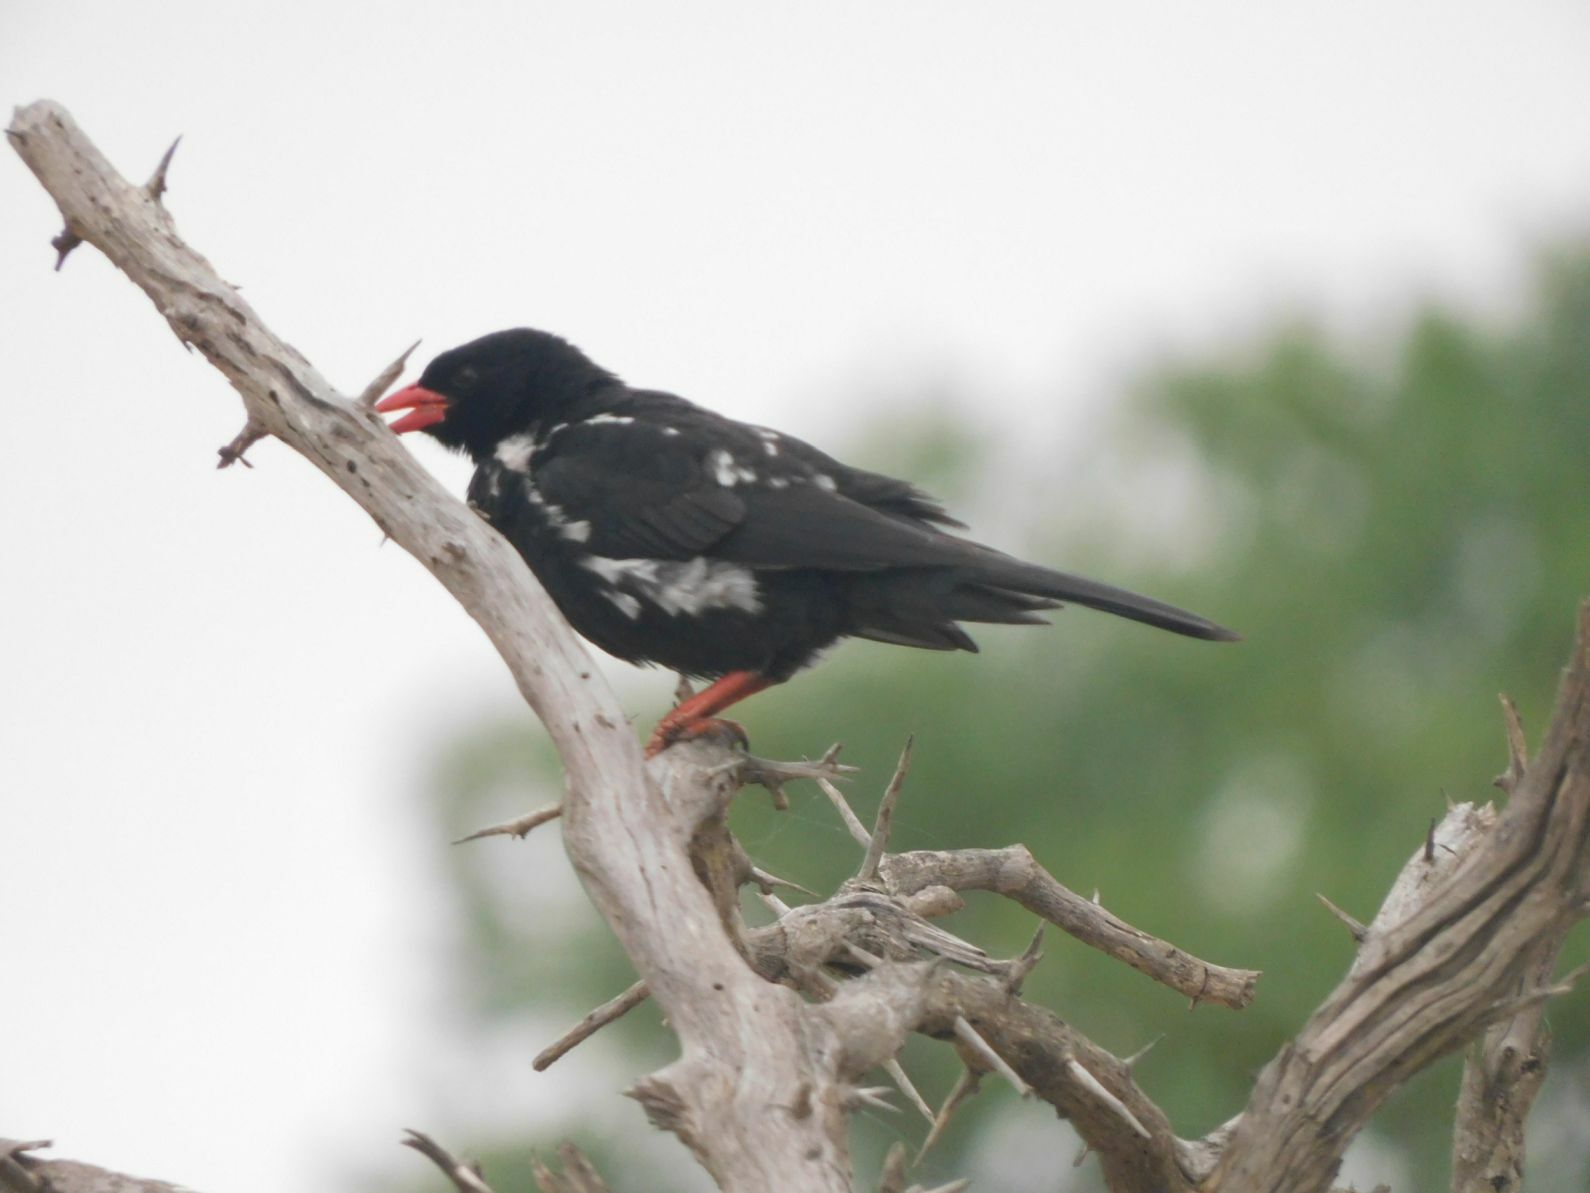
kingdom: Animalia
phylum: Chordata
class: Aves
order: Passeriformes
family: Ploceidae
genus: Bubalornis
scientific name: Bubalornis niger
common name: Red-billed buffalo weaver
